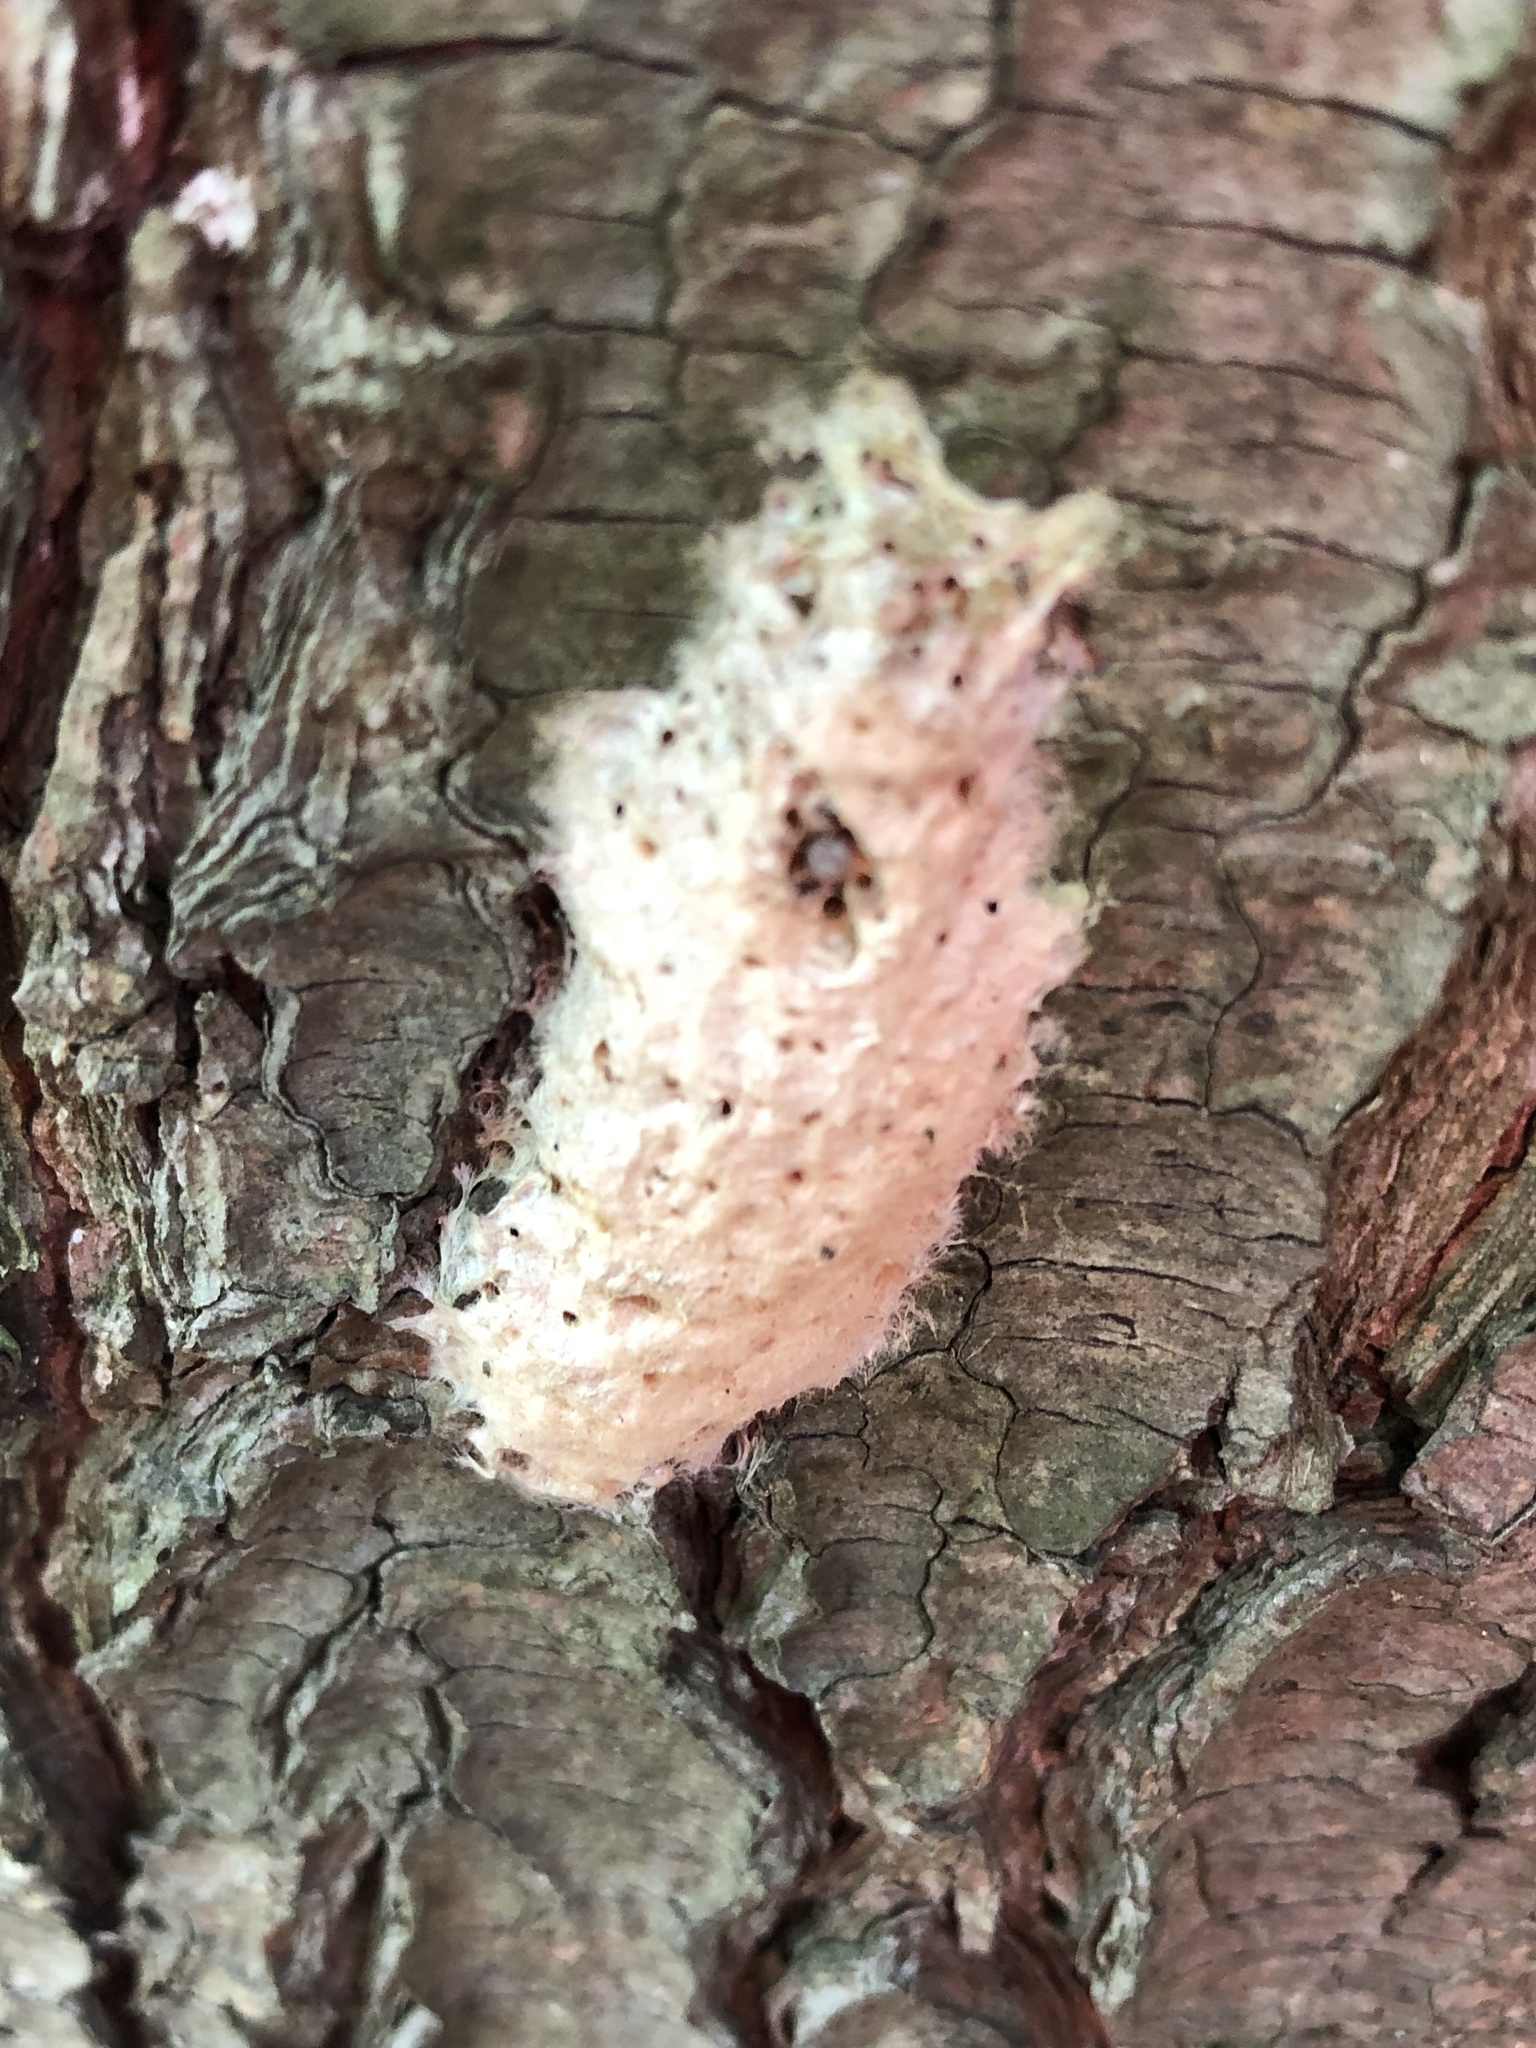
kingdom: Animalia
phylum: Arthropoda
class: Insecta
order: Lepidoptera
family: Erebidae
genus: Lymantria
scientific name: Lymantria dispar
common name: Gypsy moth
